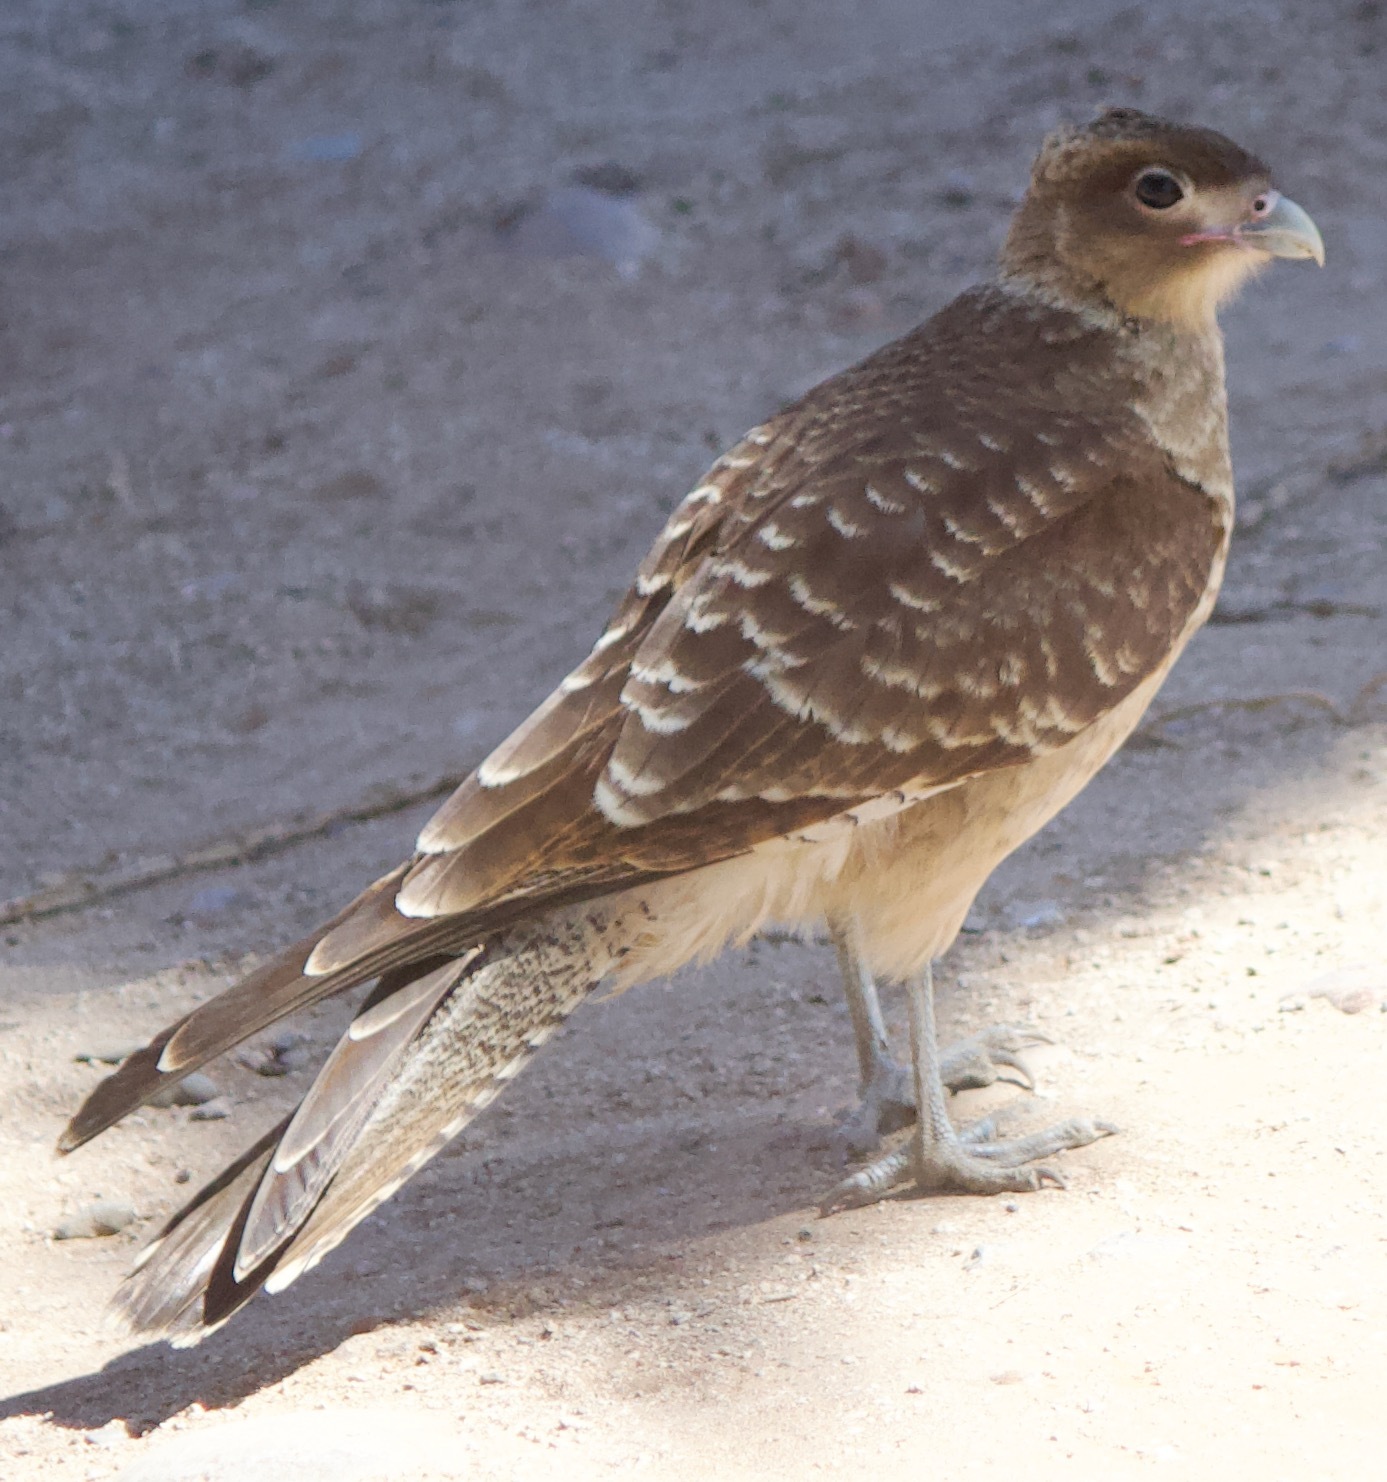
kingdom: Animalia
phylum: Chordata
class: Aves
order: Falconiformes
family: Falconidae
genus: Daptrius
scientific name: Daptrius
